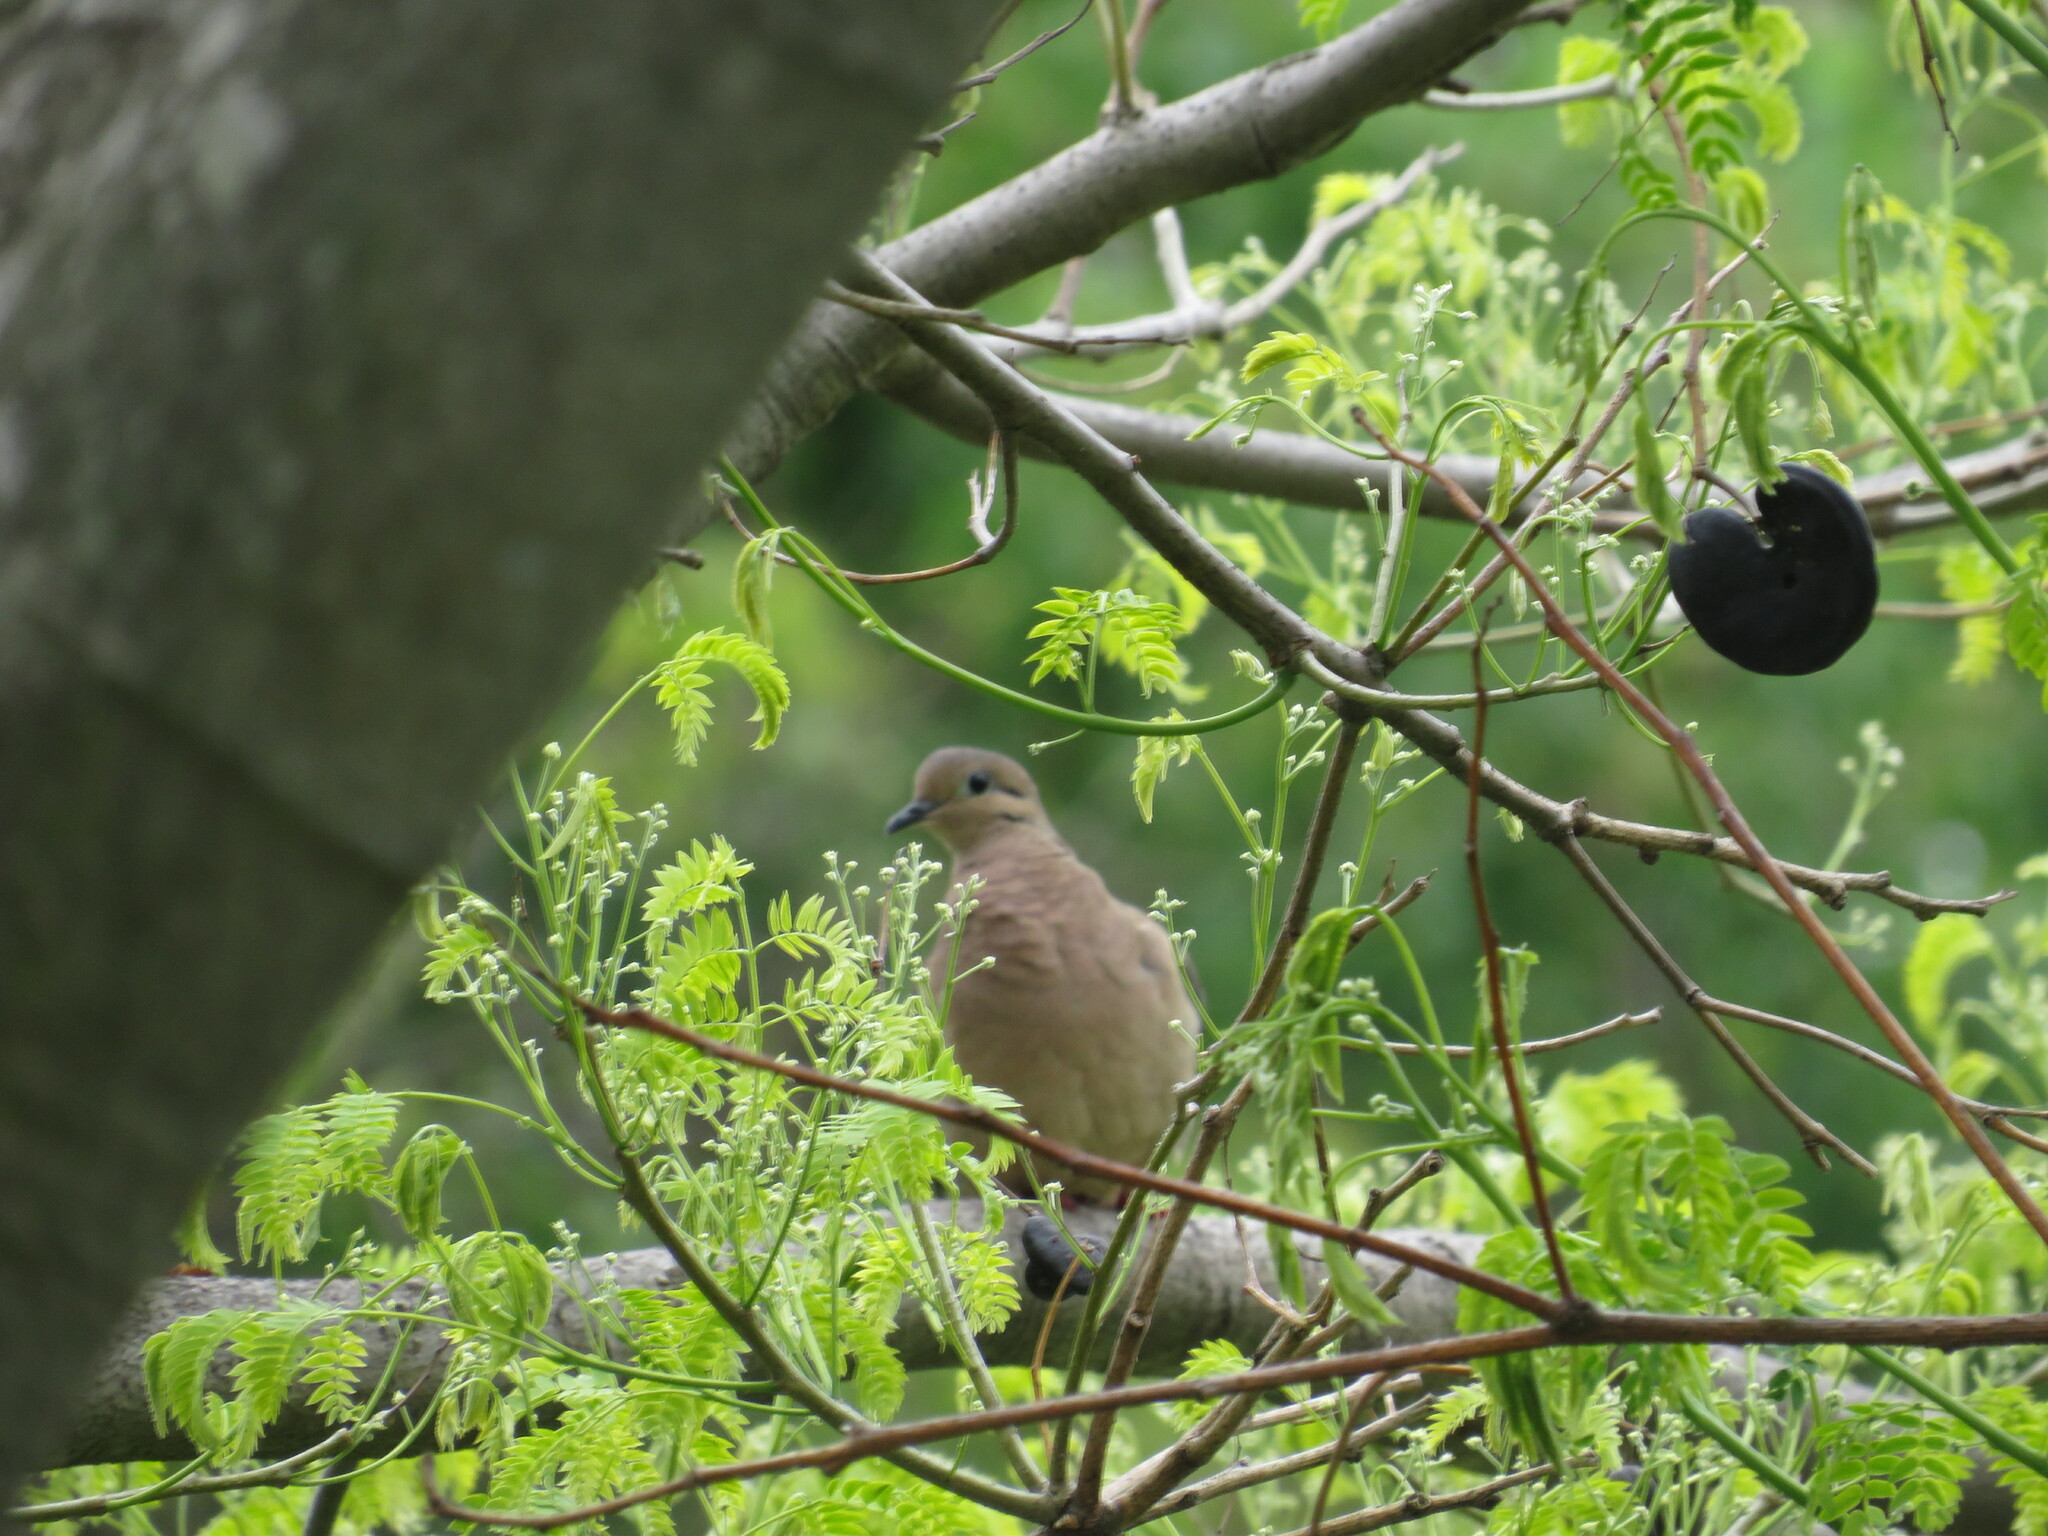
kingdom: Animalia
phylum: Chordata
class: Aves
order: Columbiformes
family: Columbidae
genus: Zenaida
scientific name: Zenaida auriculata
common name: Eared dove
